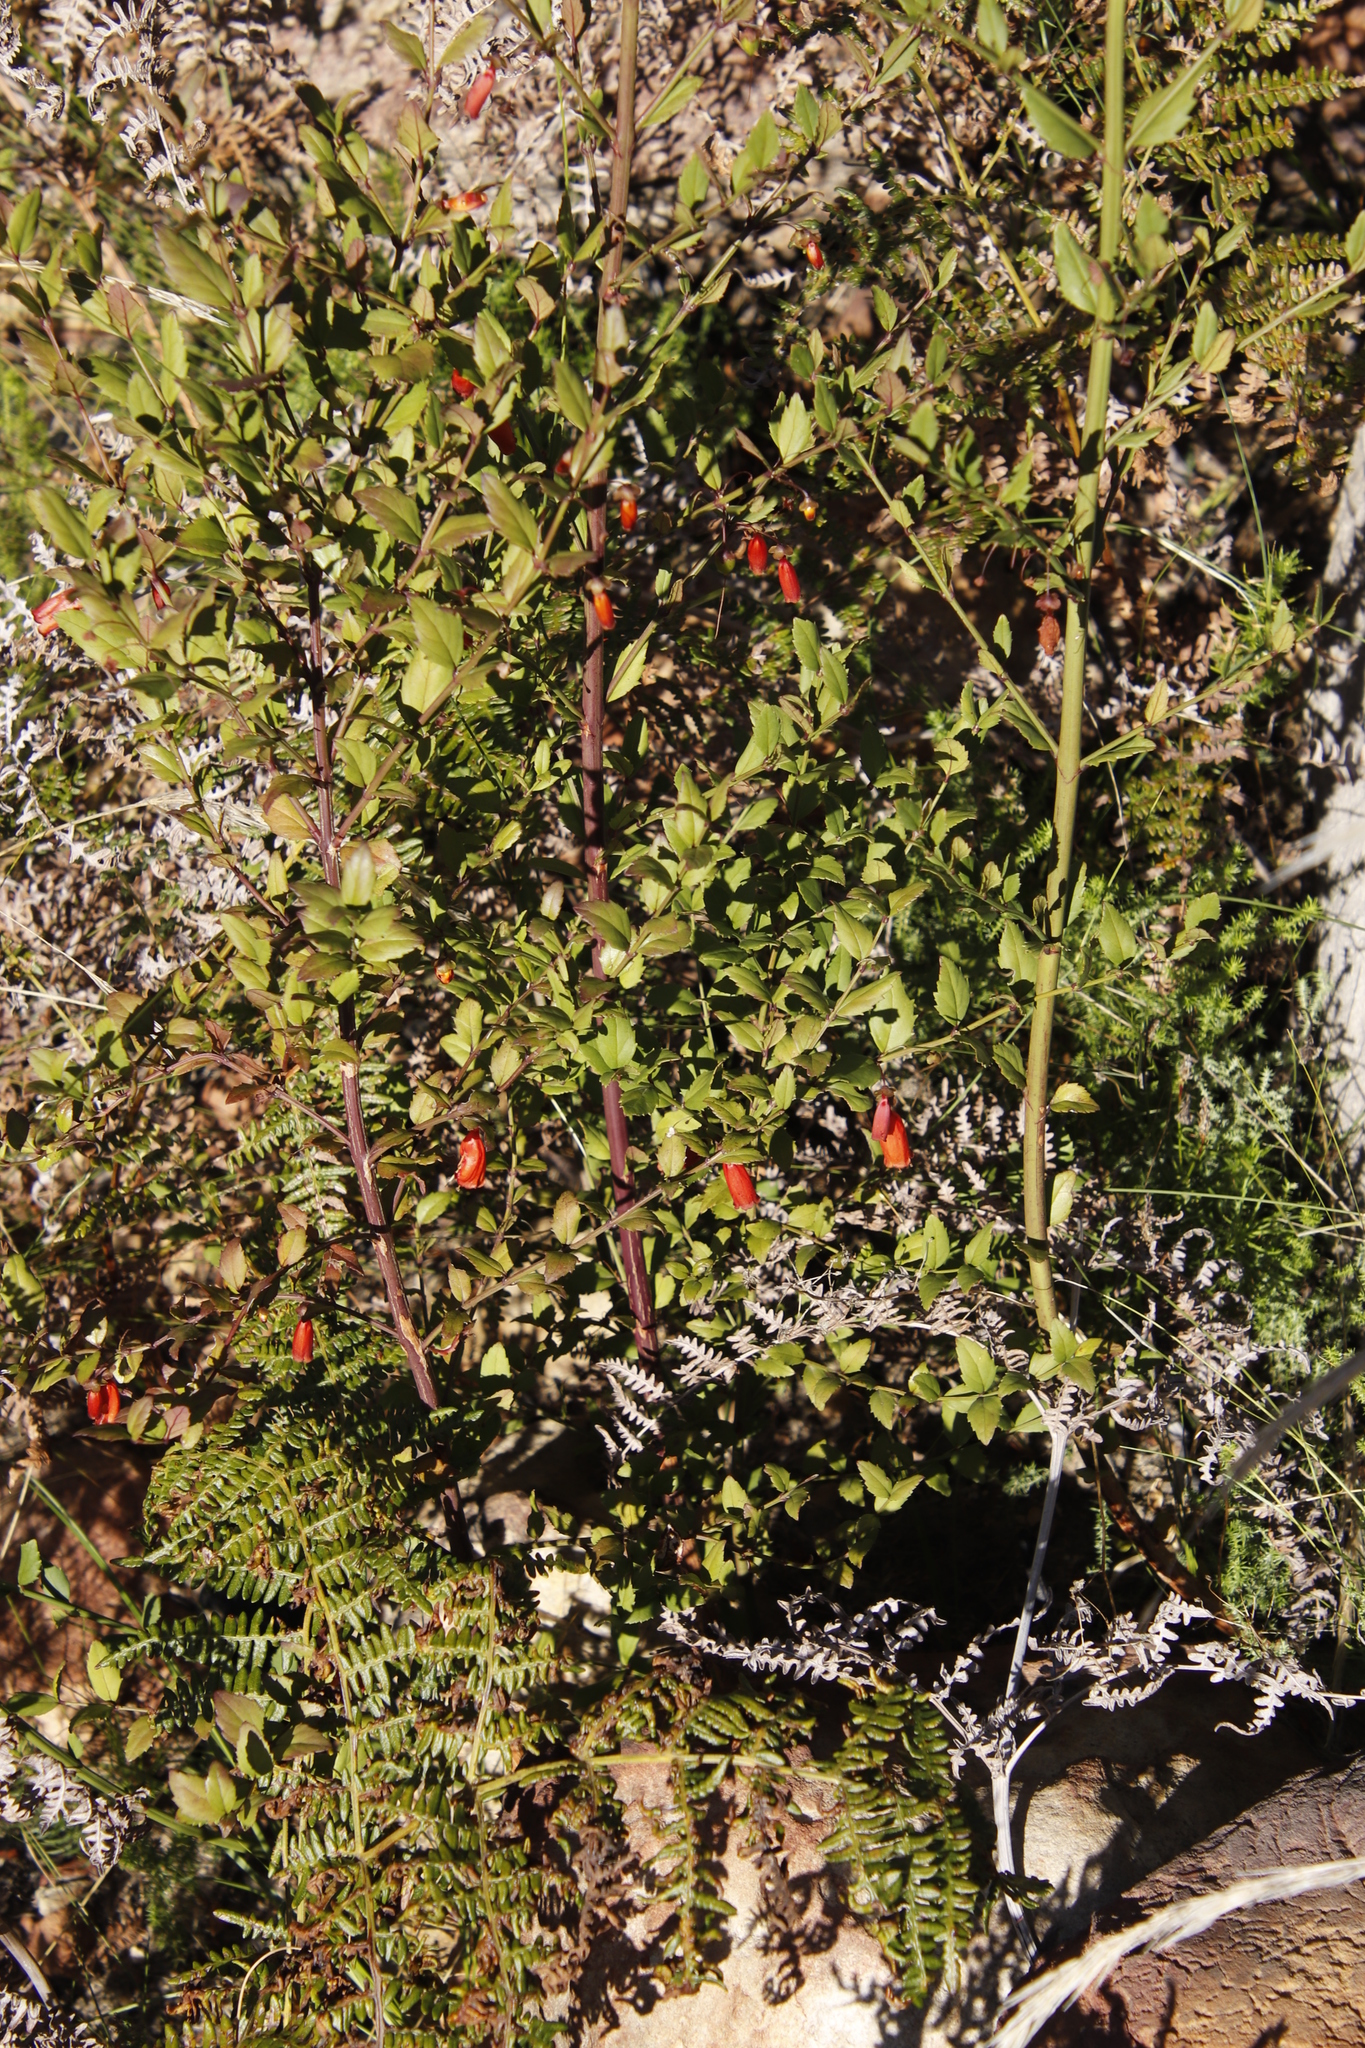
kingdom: Plantae
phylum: Tracheophyta
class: Magnoliopsida
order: Lamiales
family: Stilbaceae
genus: Halleria
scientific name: Halleria elliptica
